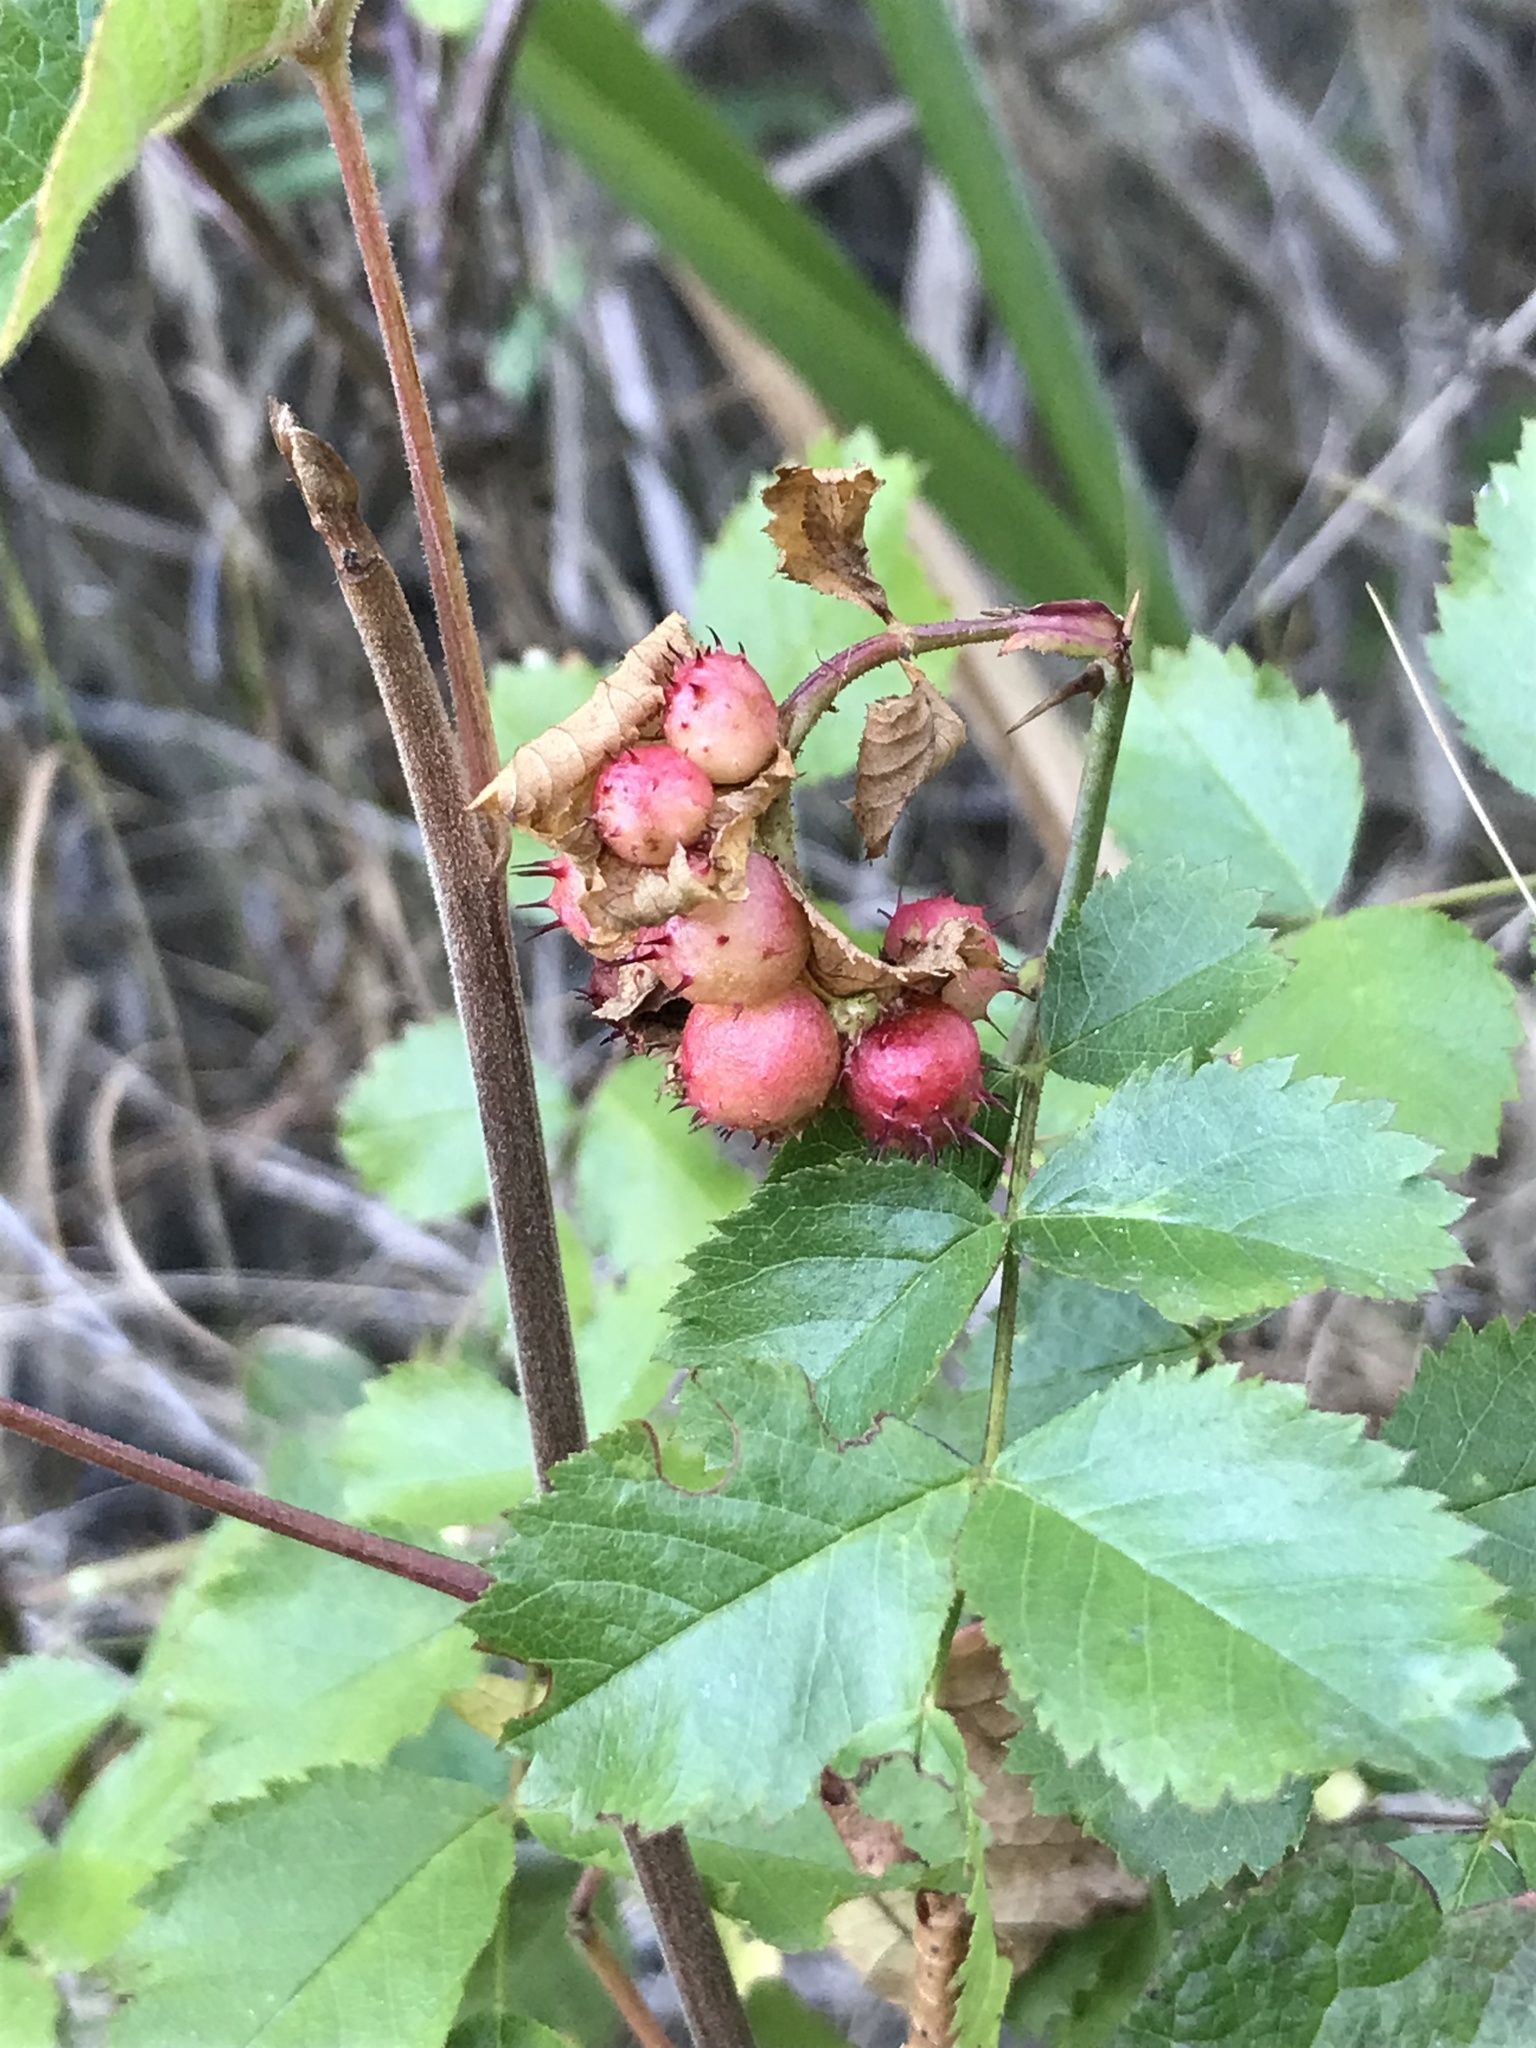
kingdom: Animalia
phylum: Arthropoda
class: Insecta
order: Hymenoptera
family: Cynipidae
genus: Diplolepis
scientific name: Diplolepis polita
